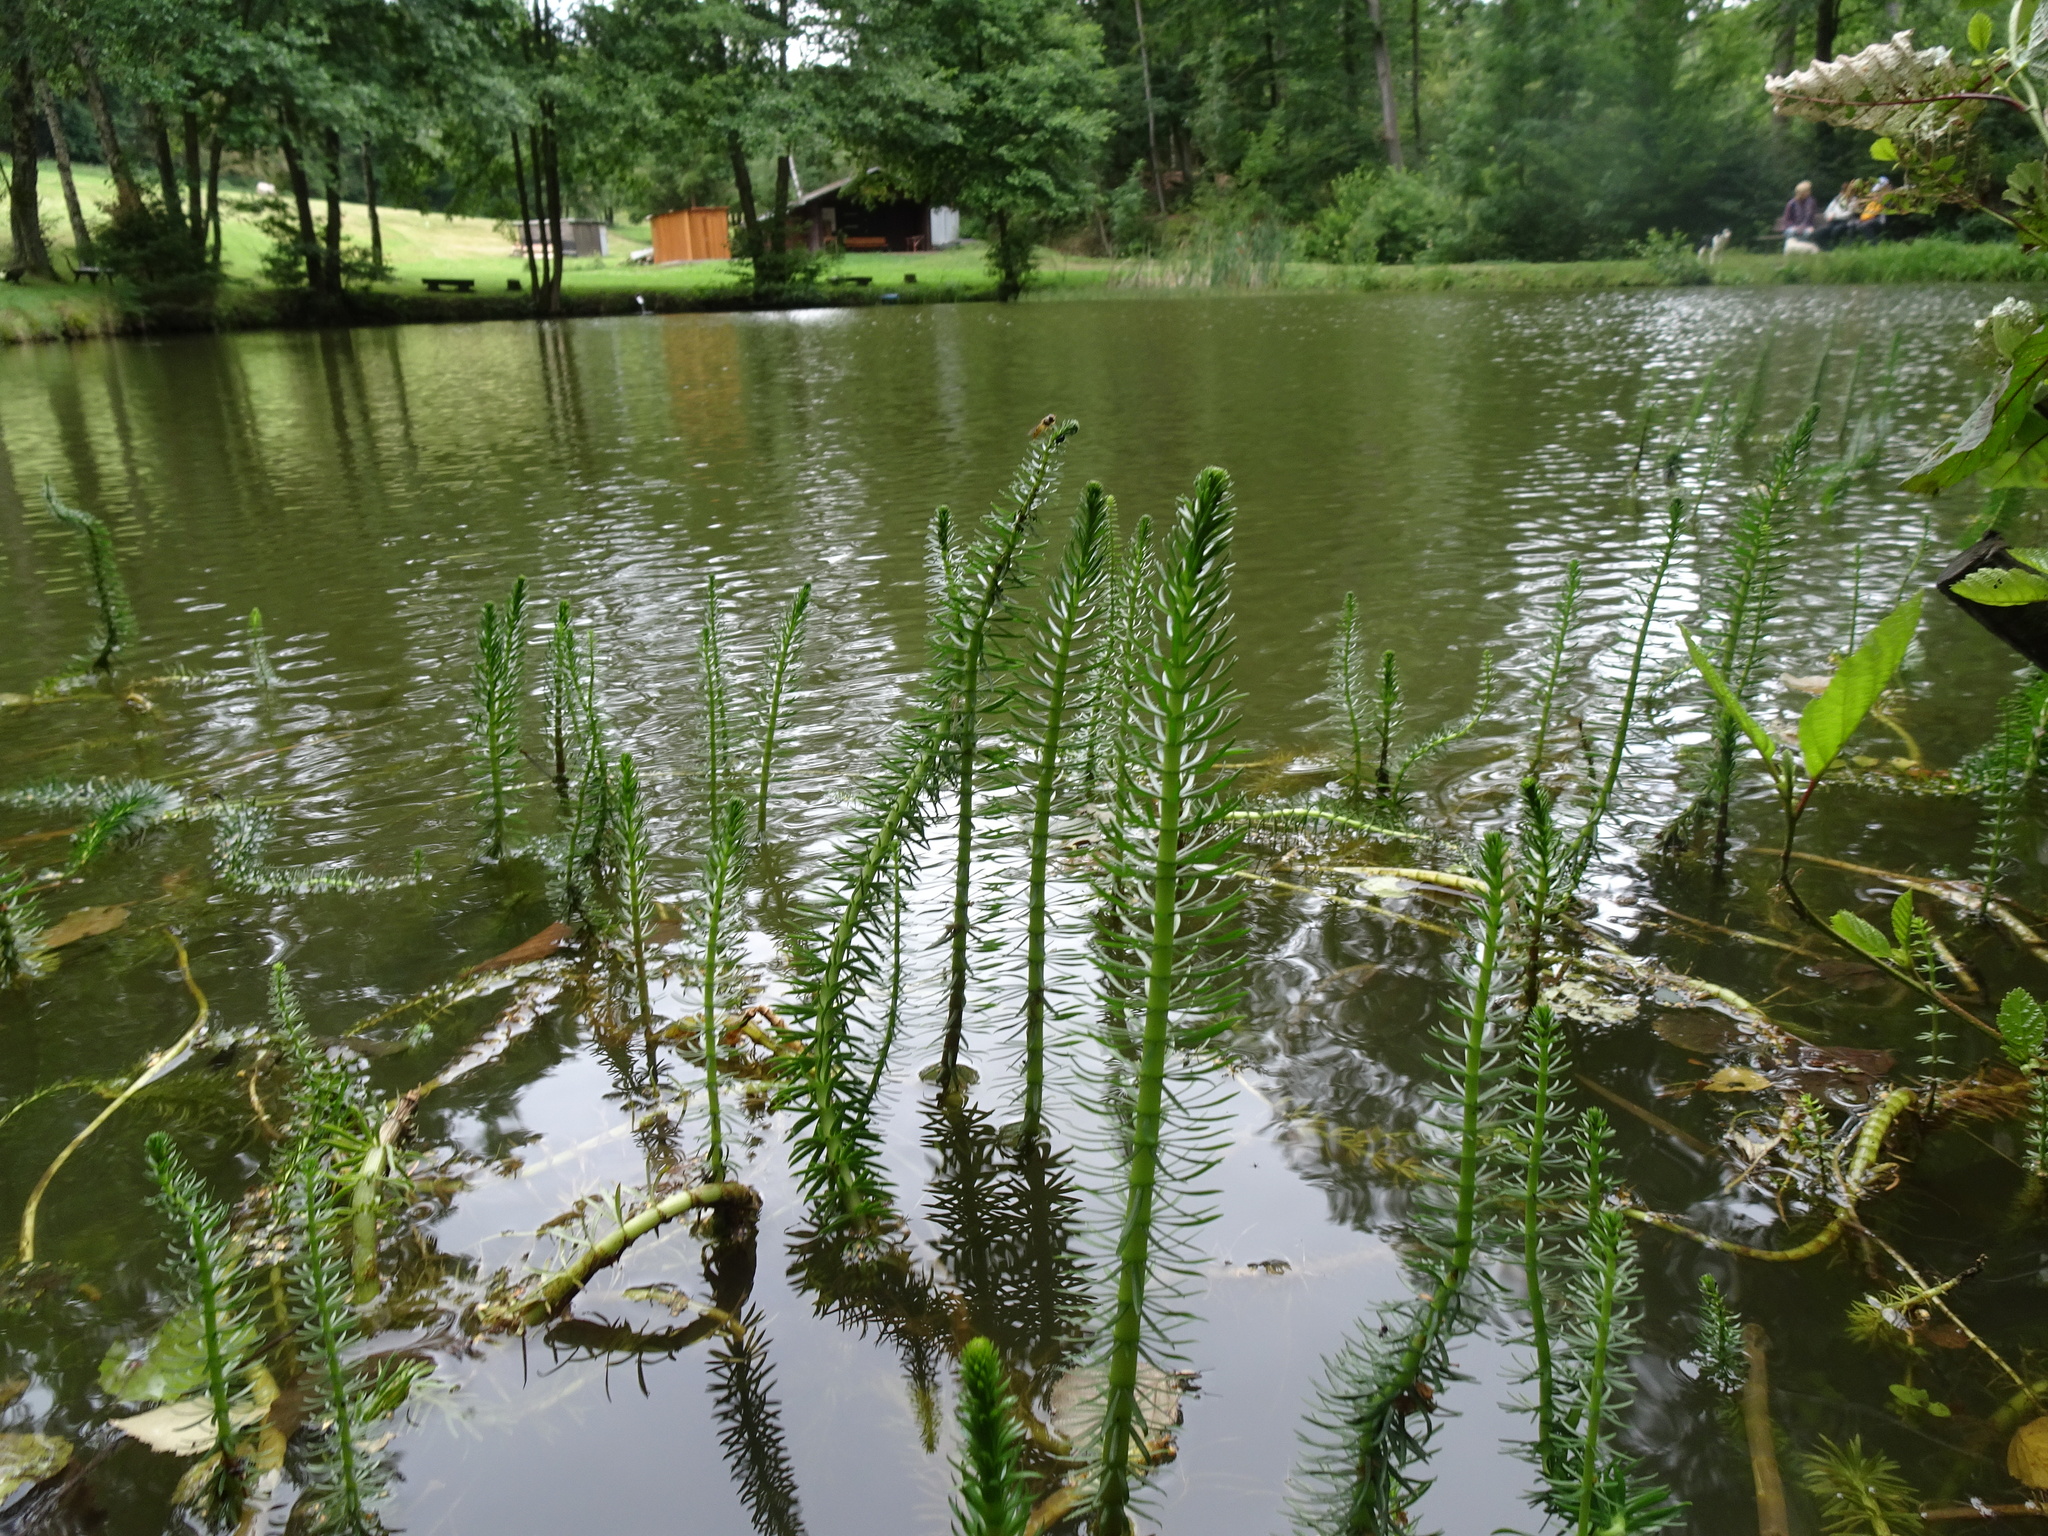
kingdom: Plantae
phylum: Tracheophyta
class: Magnoliopsida
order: Lamiales
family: Plantaginaceae
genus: Hippuris
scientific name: Hippuris vulgaris
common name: Mare's-tail
